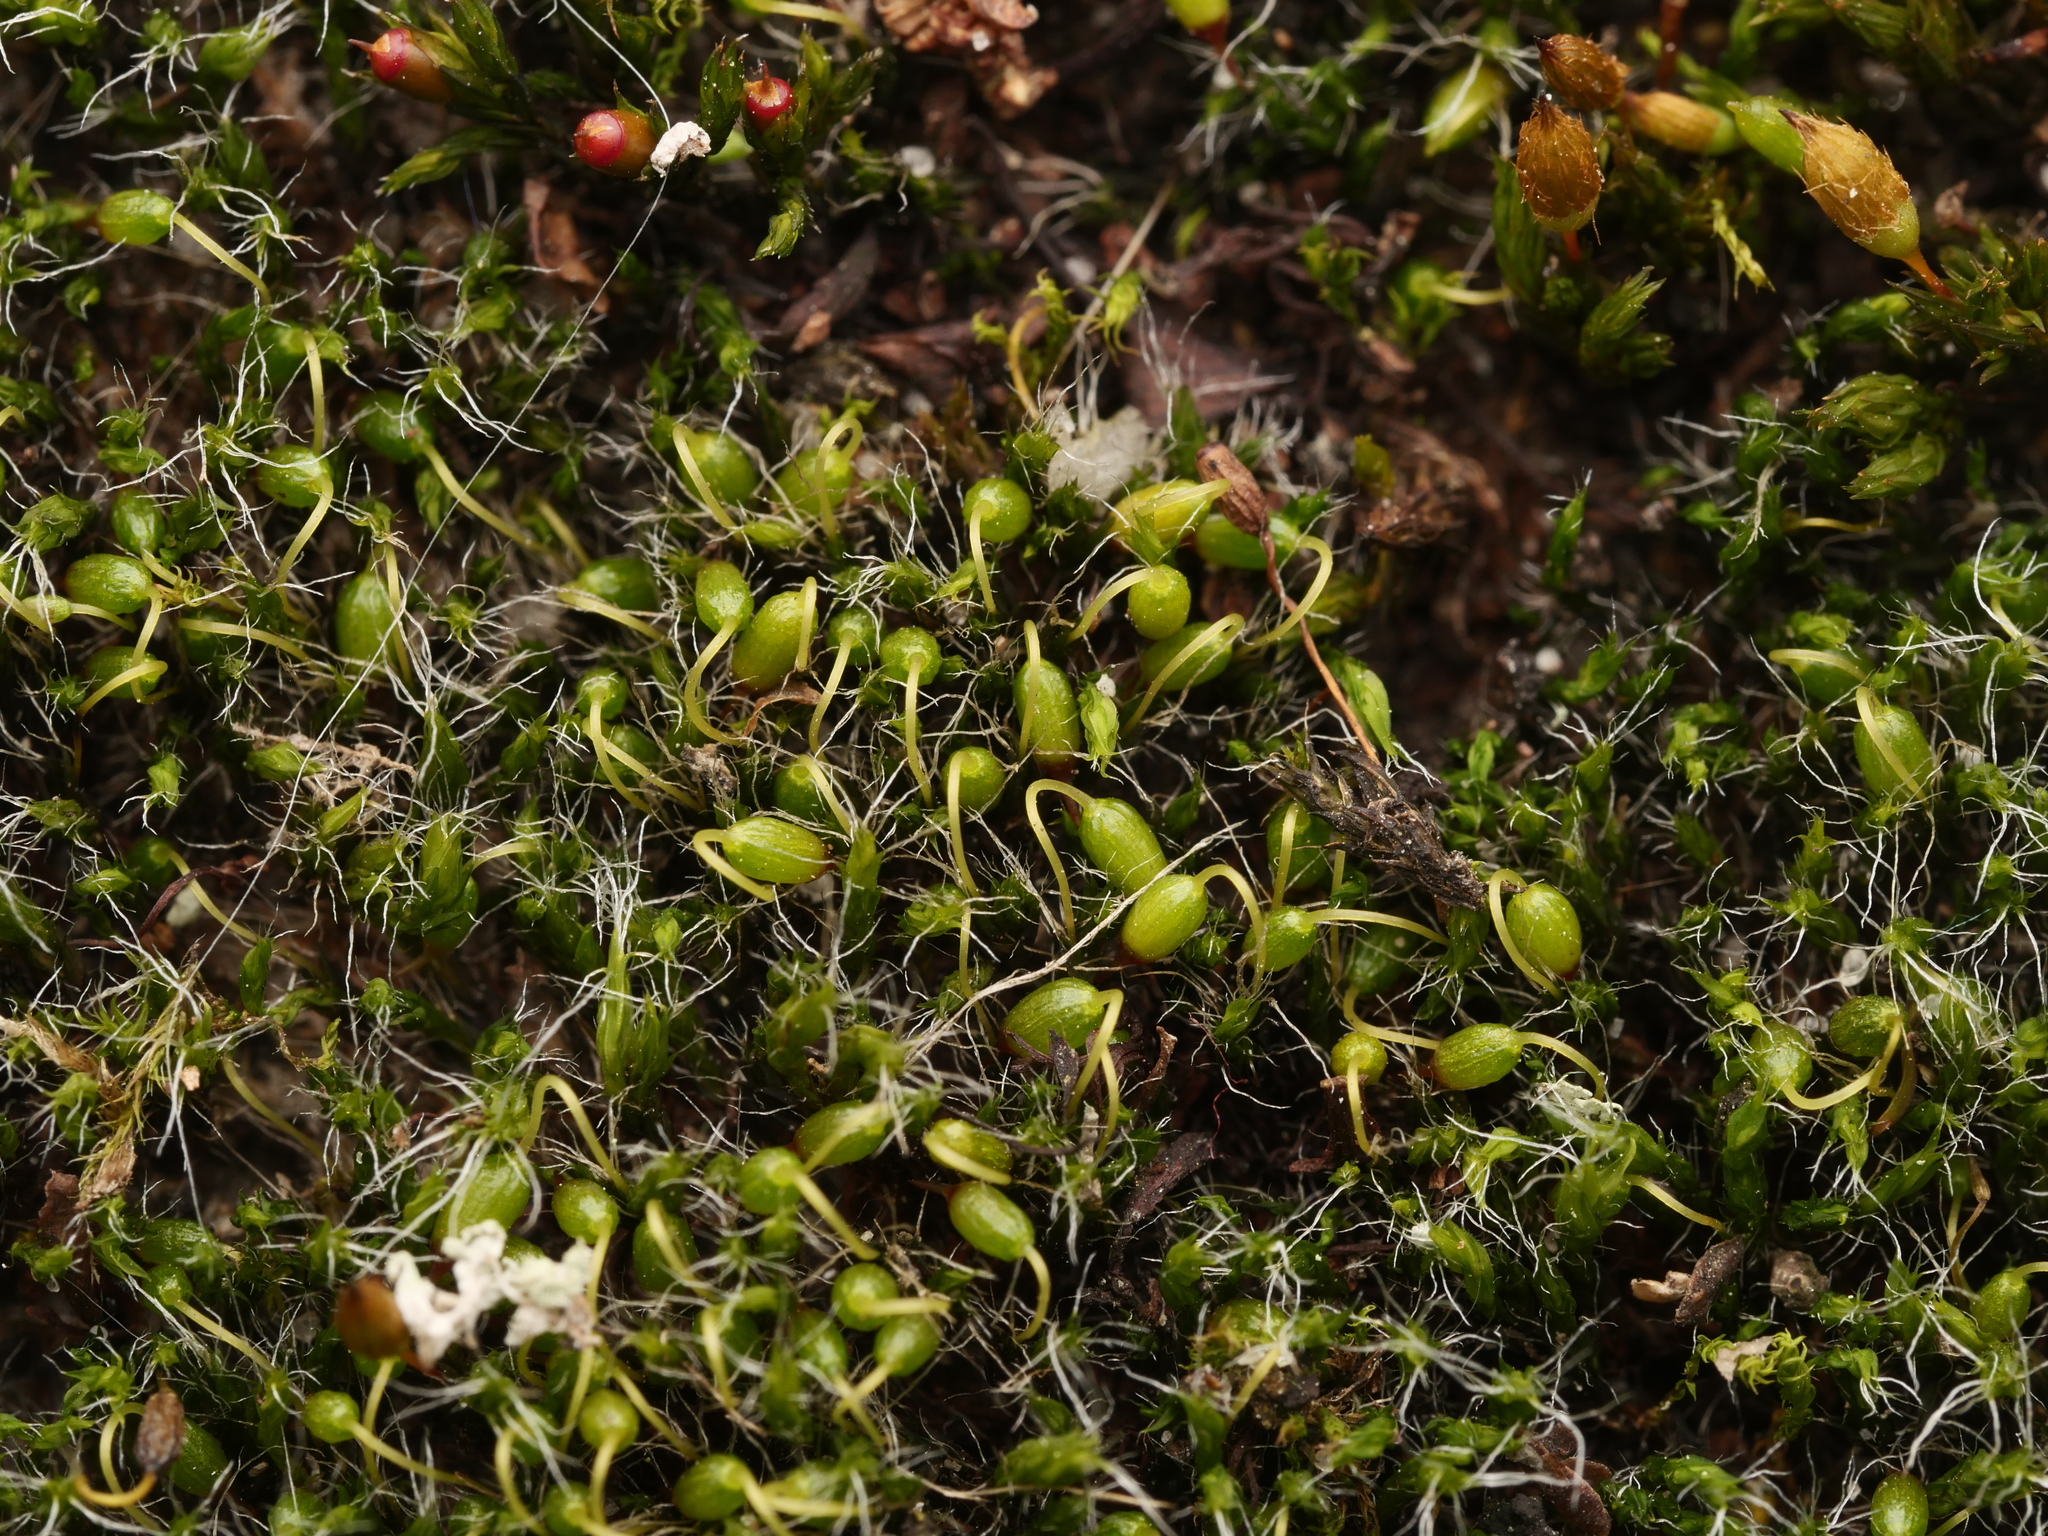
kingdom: Plantae
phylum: Bryophyta
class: Bryopsida
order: Grimmiales
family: Grimmiaceae
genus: Grimmia
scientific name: Grimmia pulvinata
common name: Grey-cushioned grimmia
